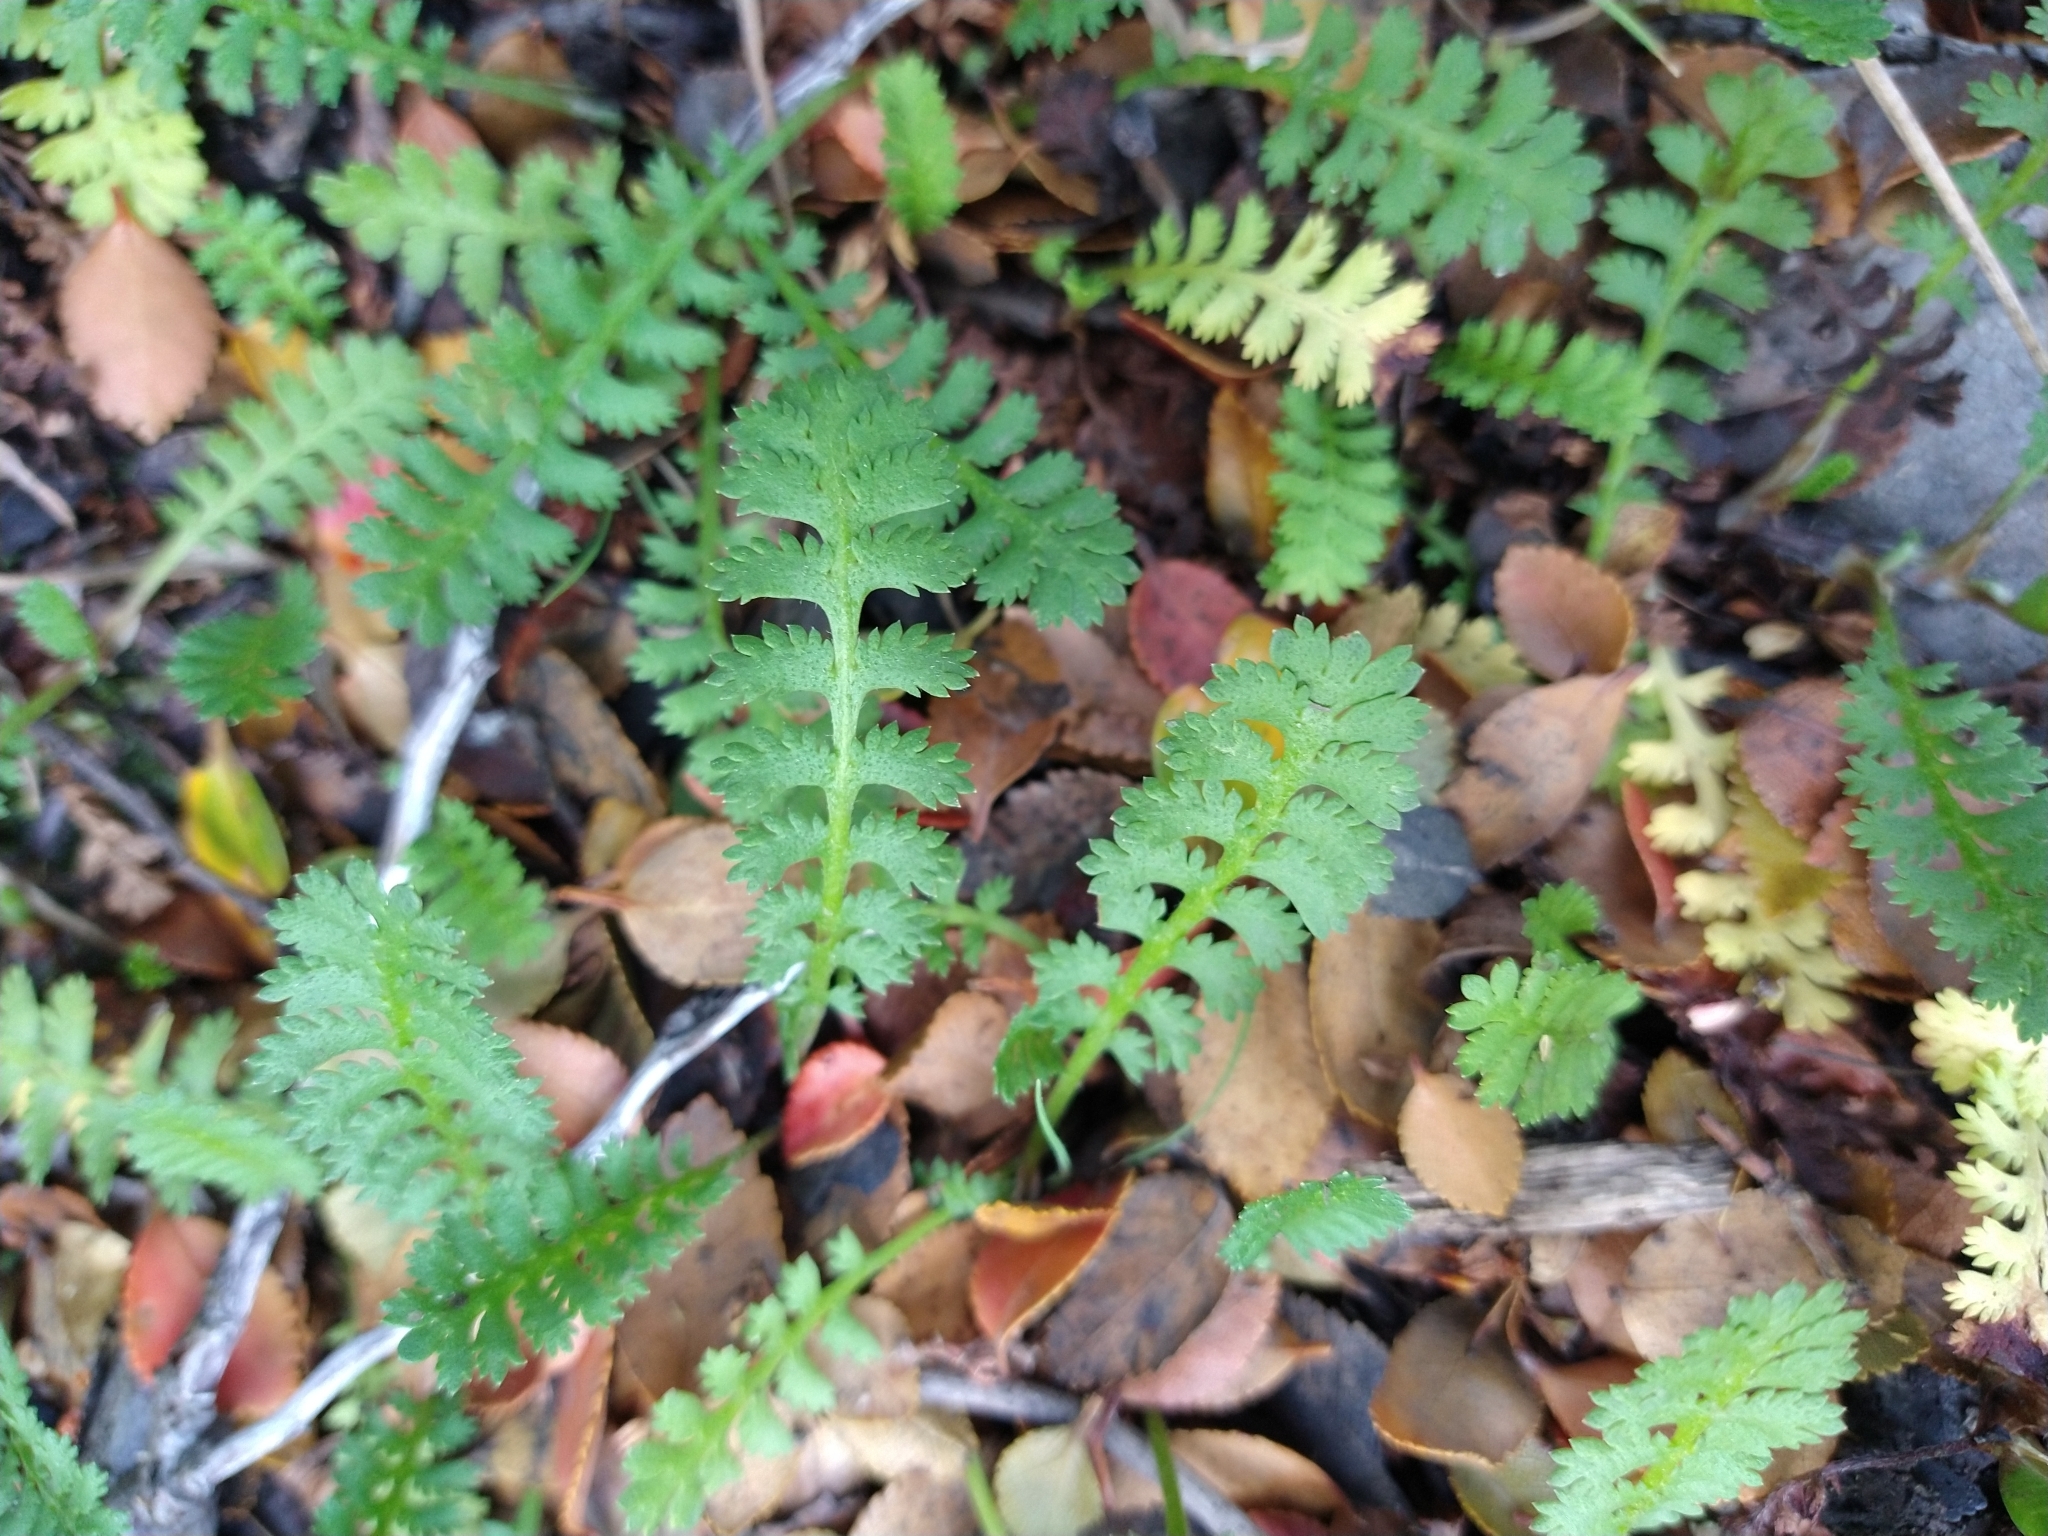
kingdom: Plantae
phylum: Tracheophyta
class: Magnoliopsida
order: Asterales
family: Asteraceae
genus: Leptinella
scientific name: Leptinella scariosa
